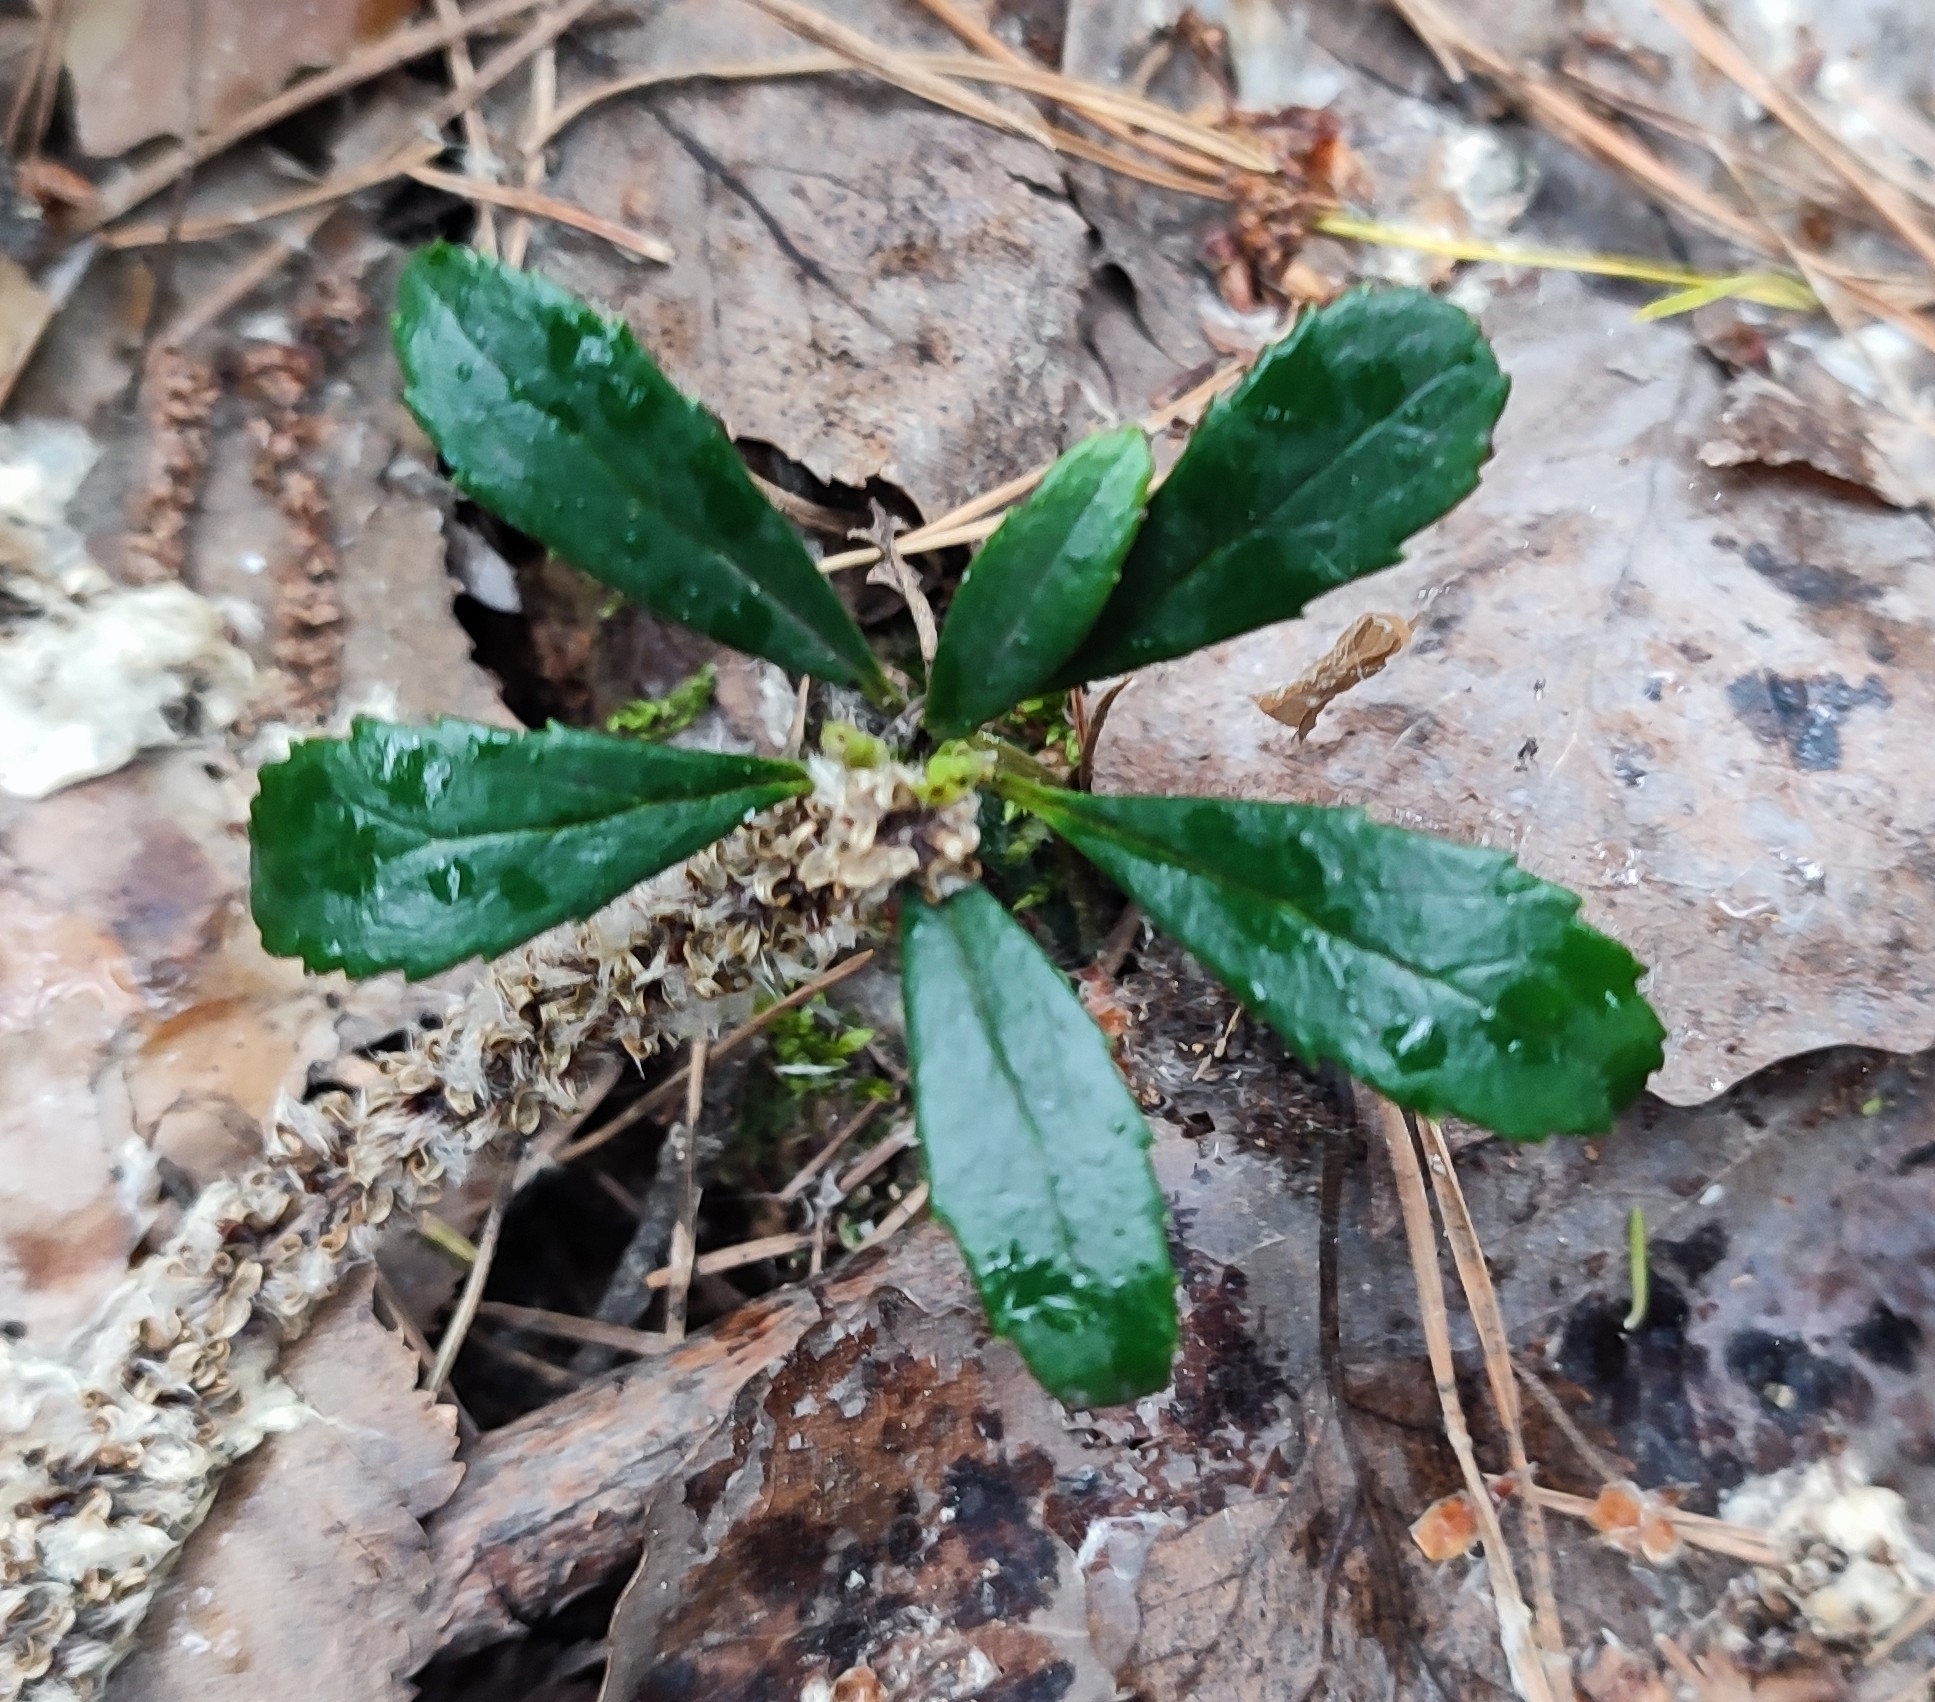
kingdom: Plantae
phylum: Tracheophyta
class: Magnoliopsida
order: Ericales
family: Ericaceae
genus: Chimaphila
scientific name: Chimaphila umbellata
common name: Pipsissewa
